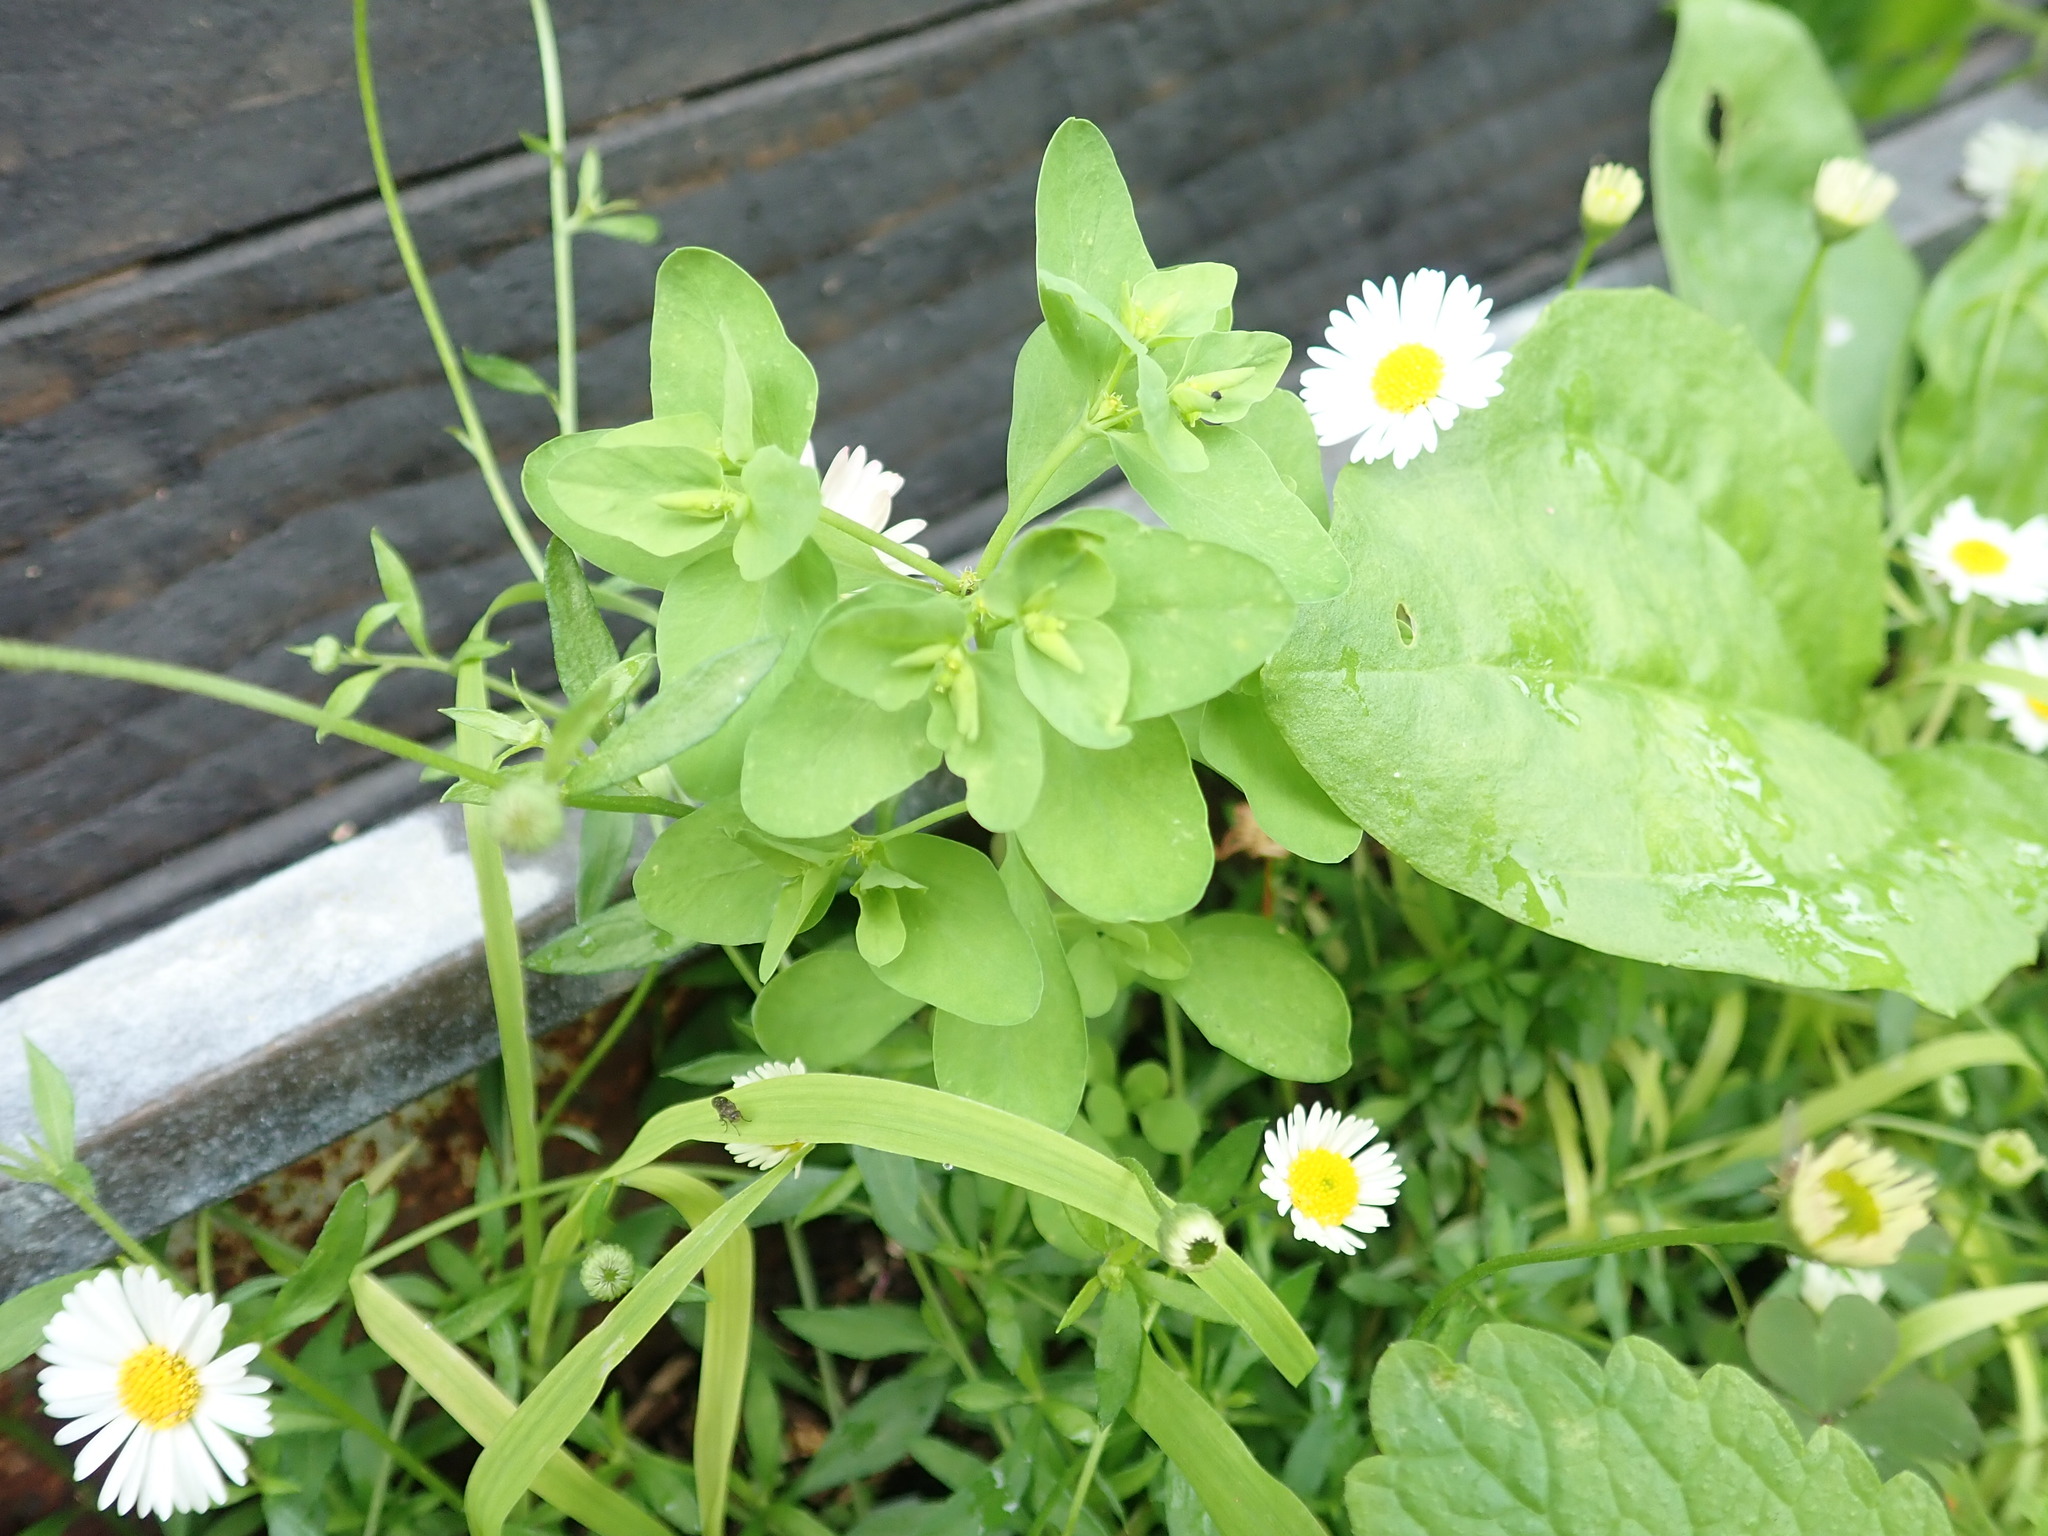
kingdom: Plantae
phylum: Tracheophyta
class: Magnoliopsida
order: Malpighiales
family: Euphorbiaceae
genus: Euphorbia
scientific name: Euphorbia peplus
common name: Petty spurge
